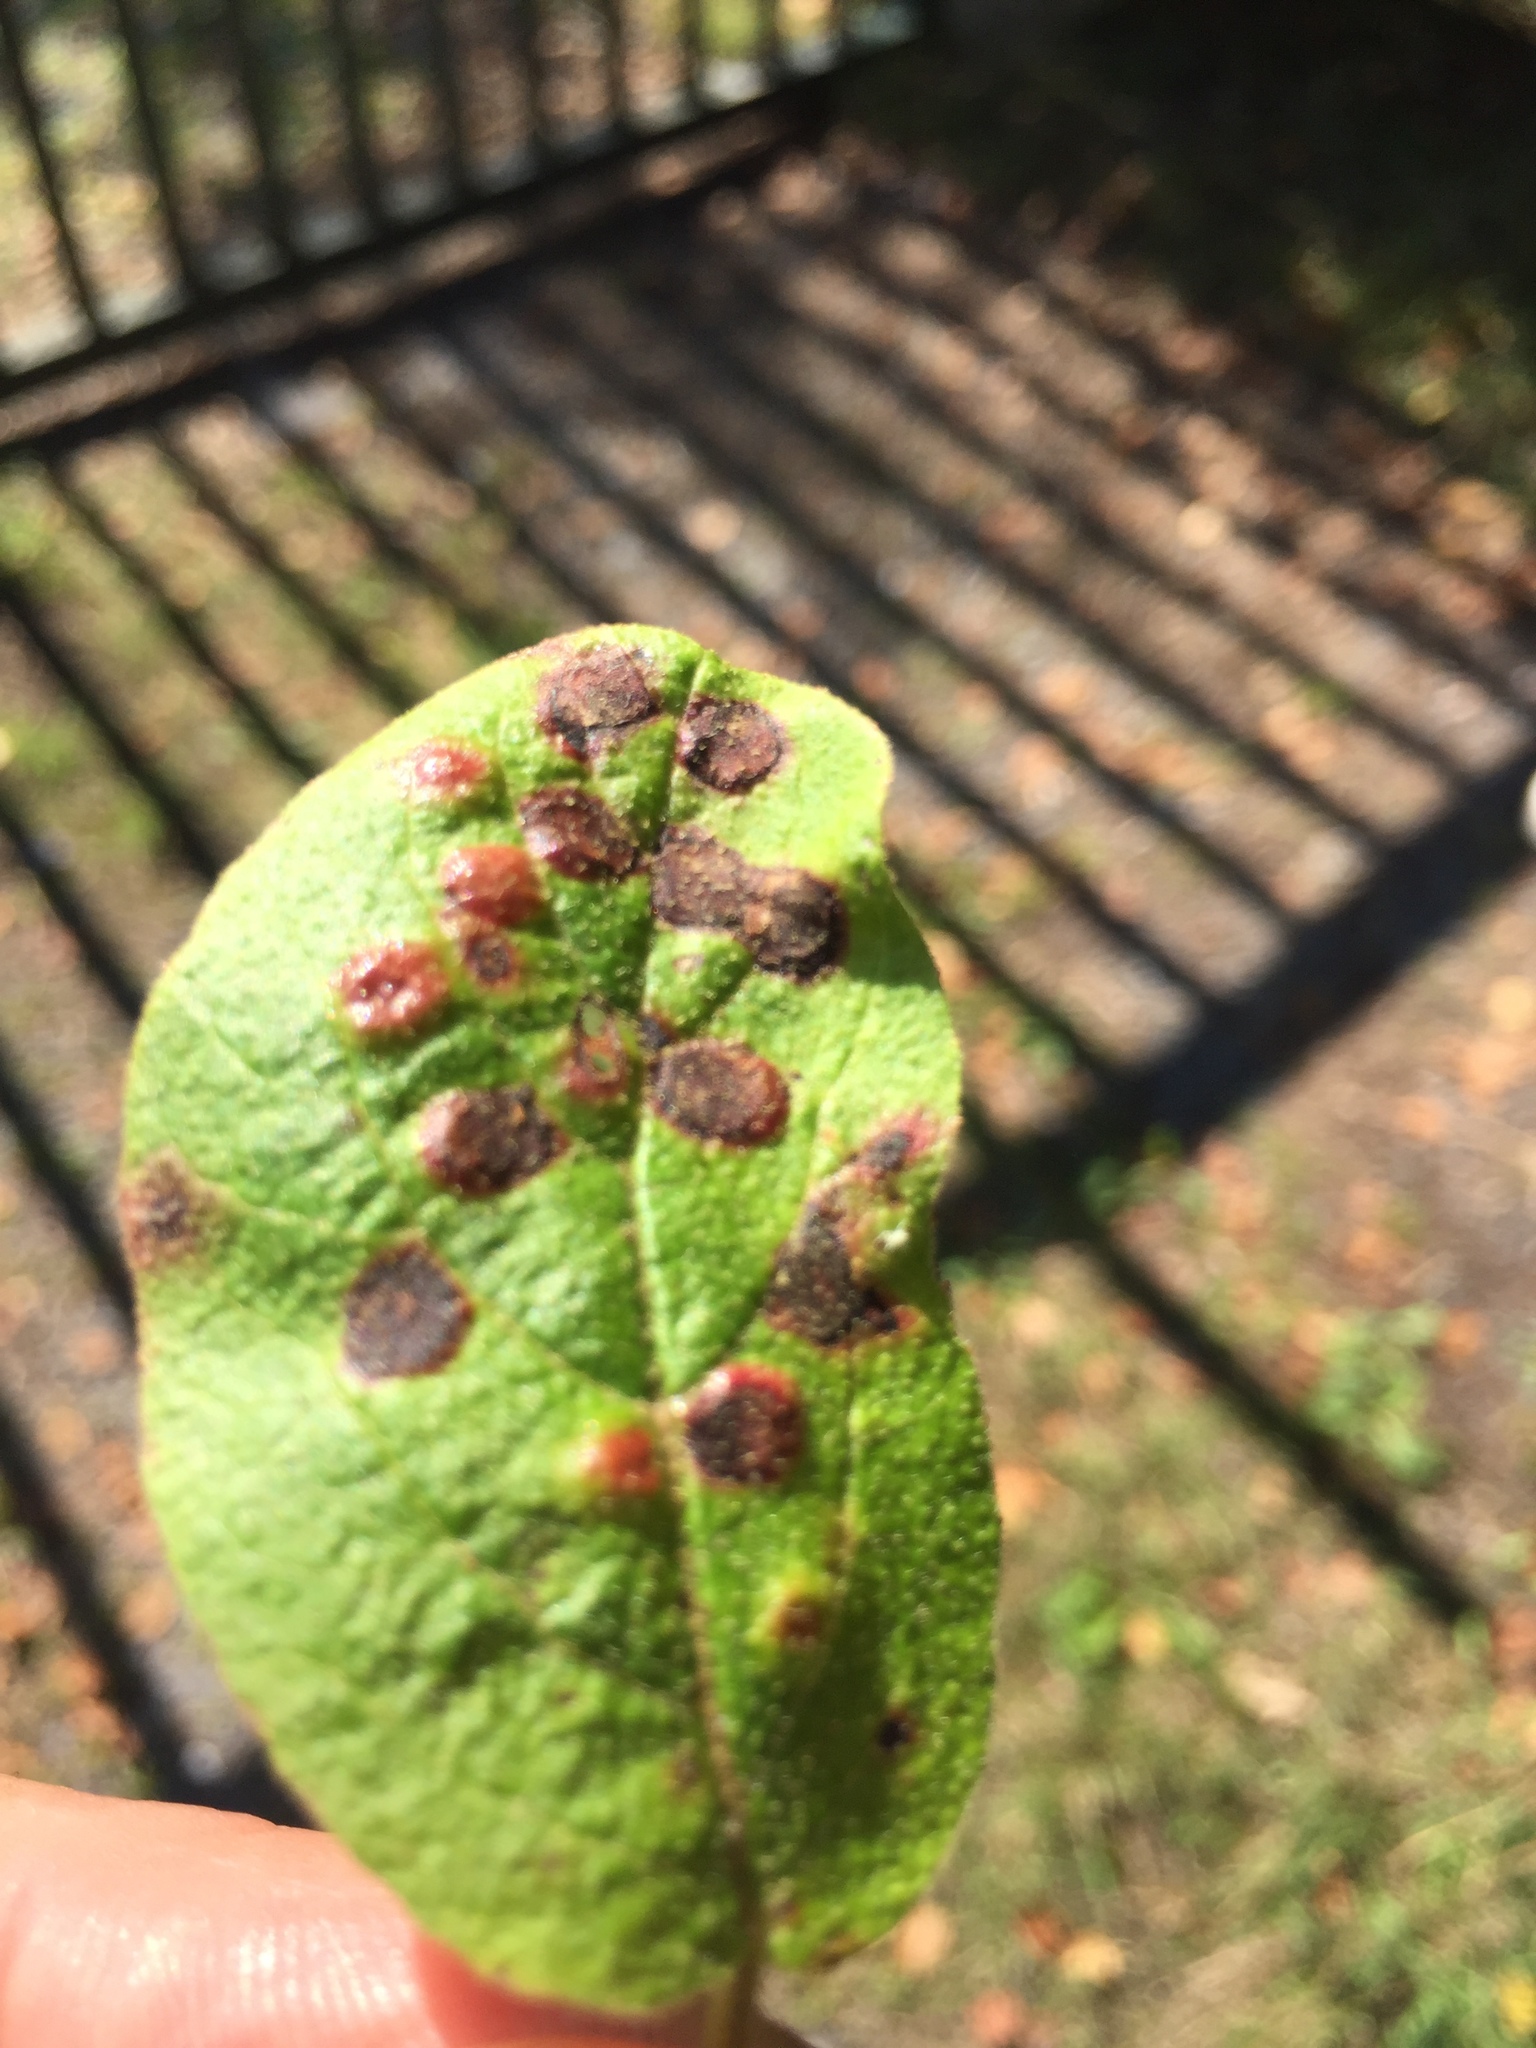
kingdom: Animalia
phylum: Arthropoda
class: Insecta
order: Diptera
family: Cecidomyiidae
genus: Sackenomyia
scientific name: Sackenomyia reaumurii
